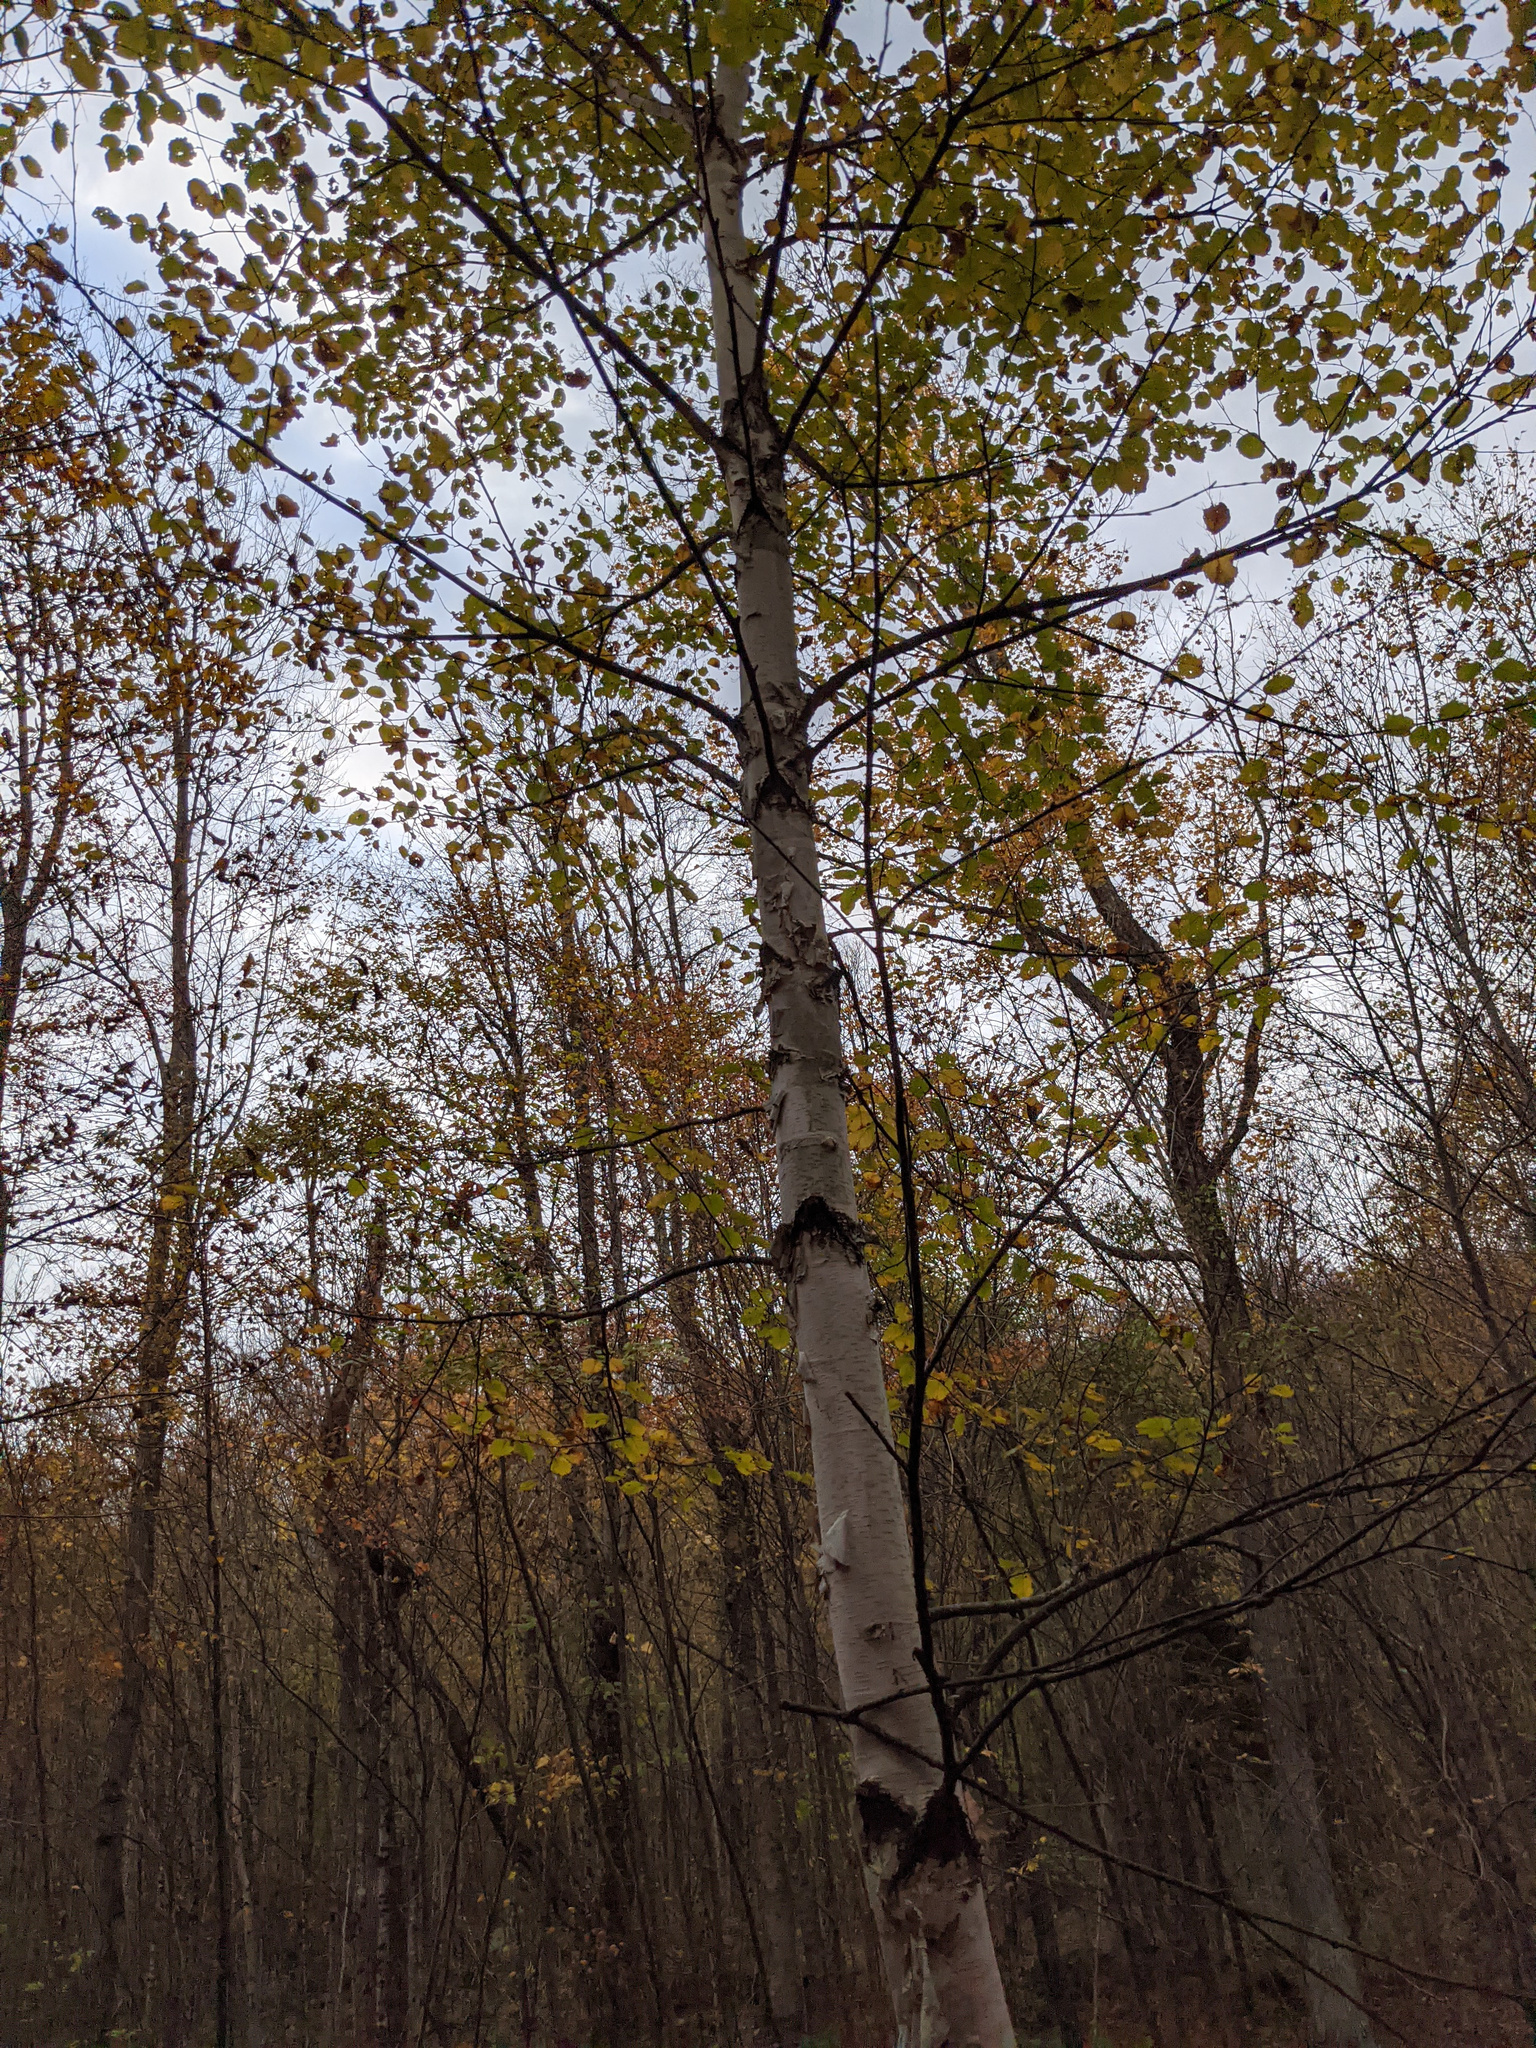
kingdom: Plantae
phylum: Tracheophyta
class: Magnoliopsida
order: Fagales
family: Betulaceae
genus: Betula
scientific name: Betula papyrifera
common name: Paper birch
